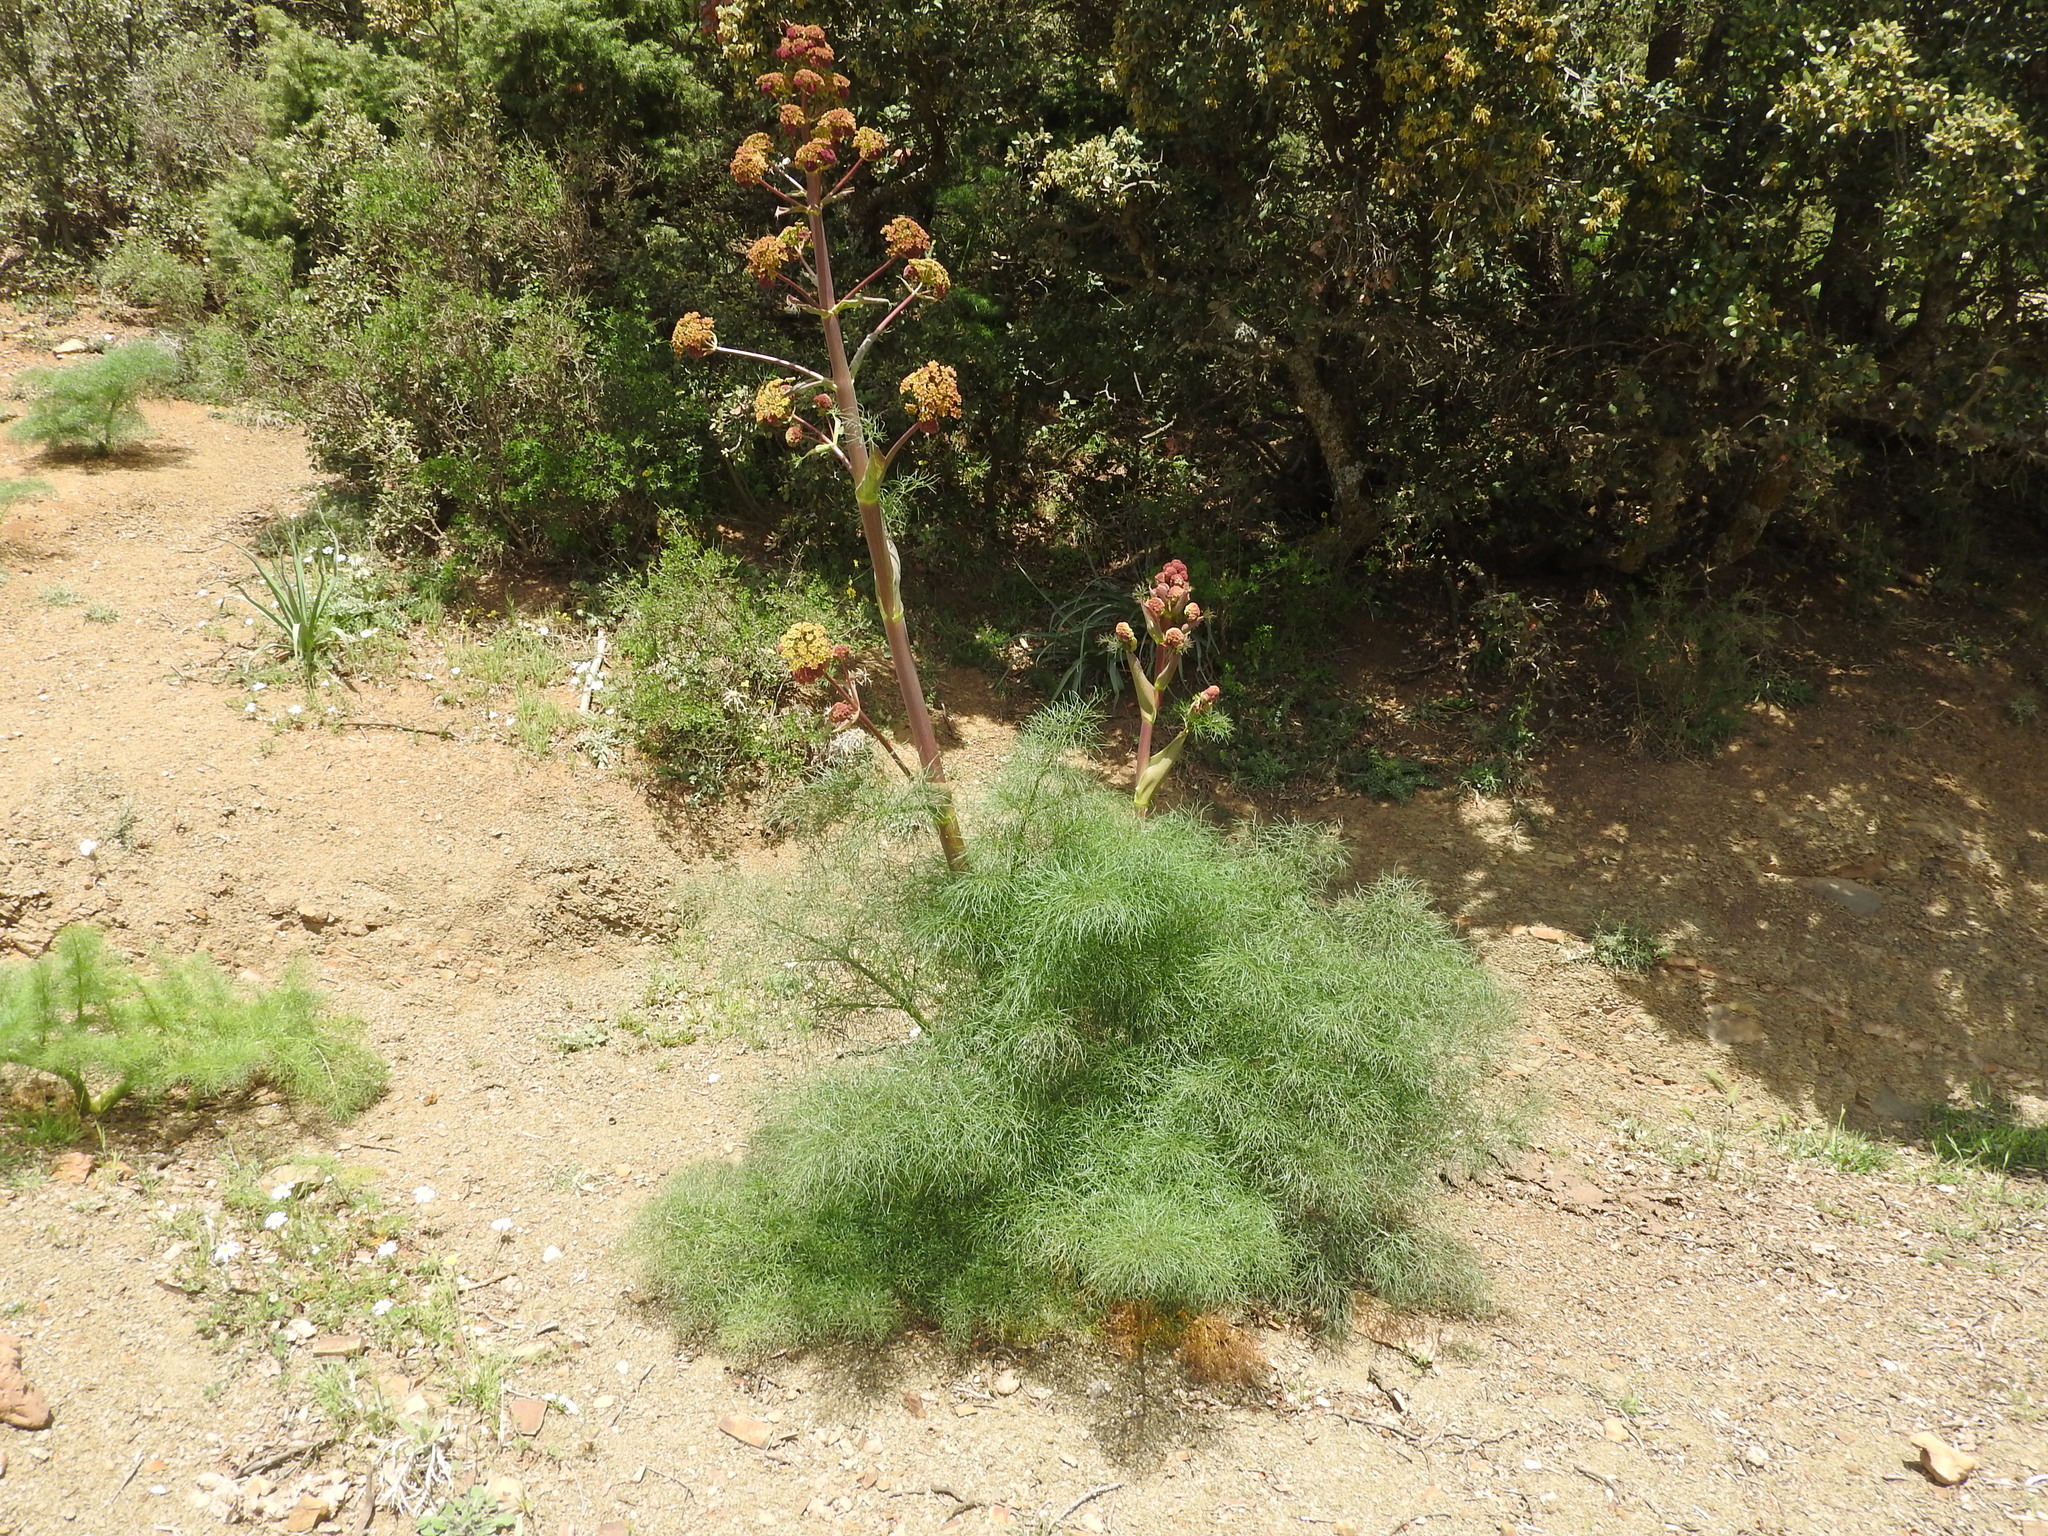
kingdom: Plantae
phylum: Tracheophyta
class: Magnoliopsida
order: Apiales
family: Apiaceae
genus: Ferula
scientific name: Ferula communis
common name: Giant fennel
